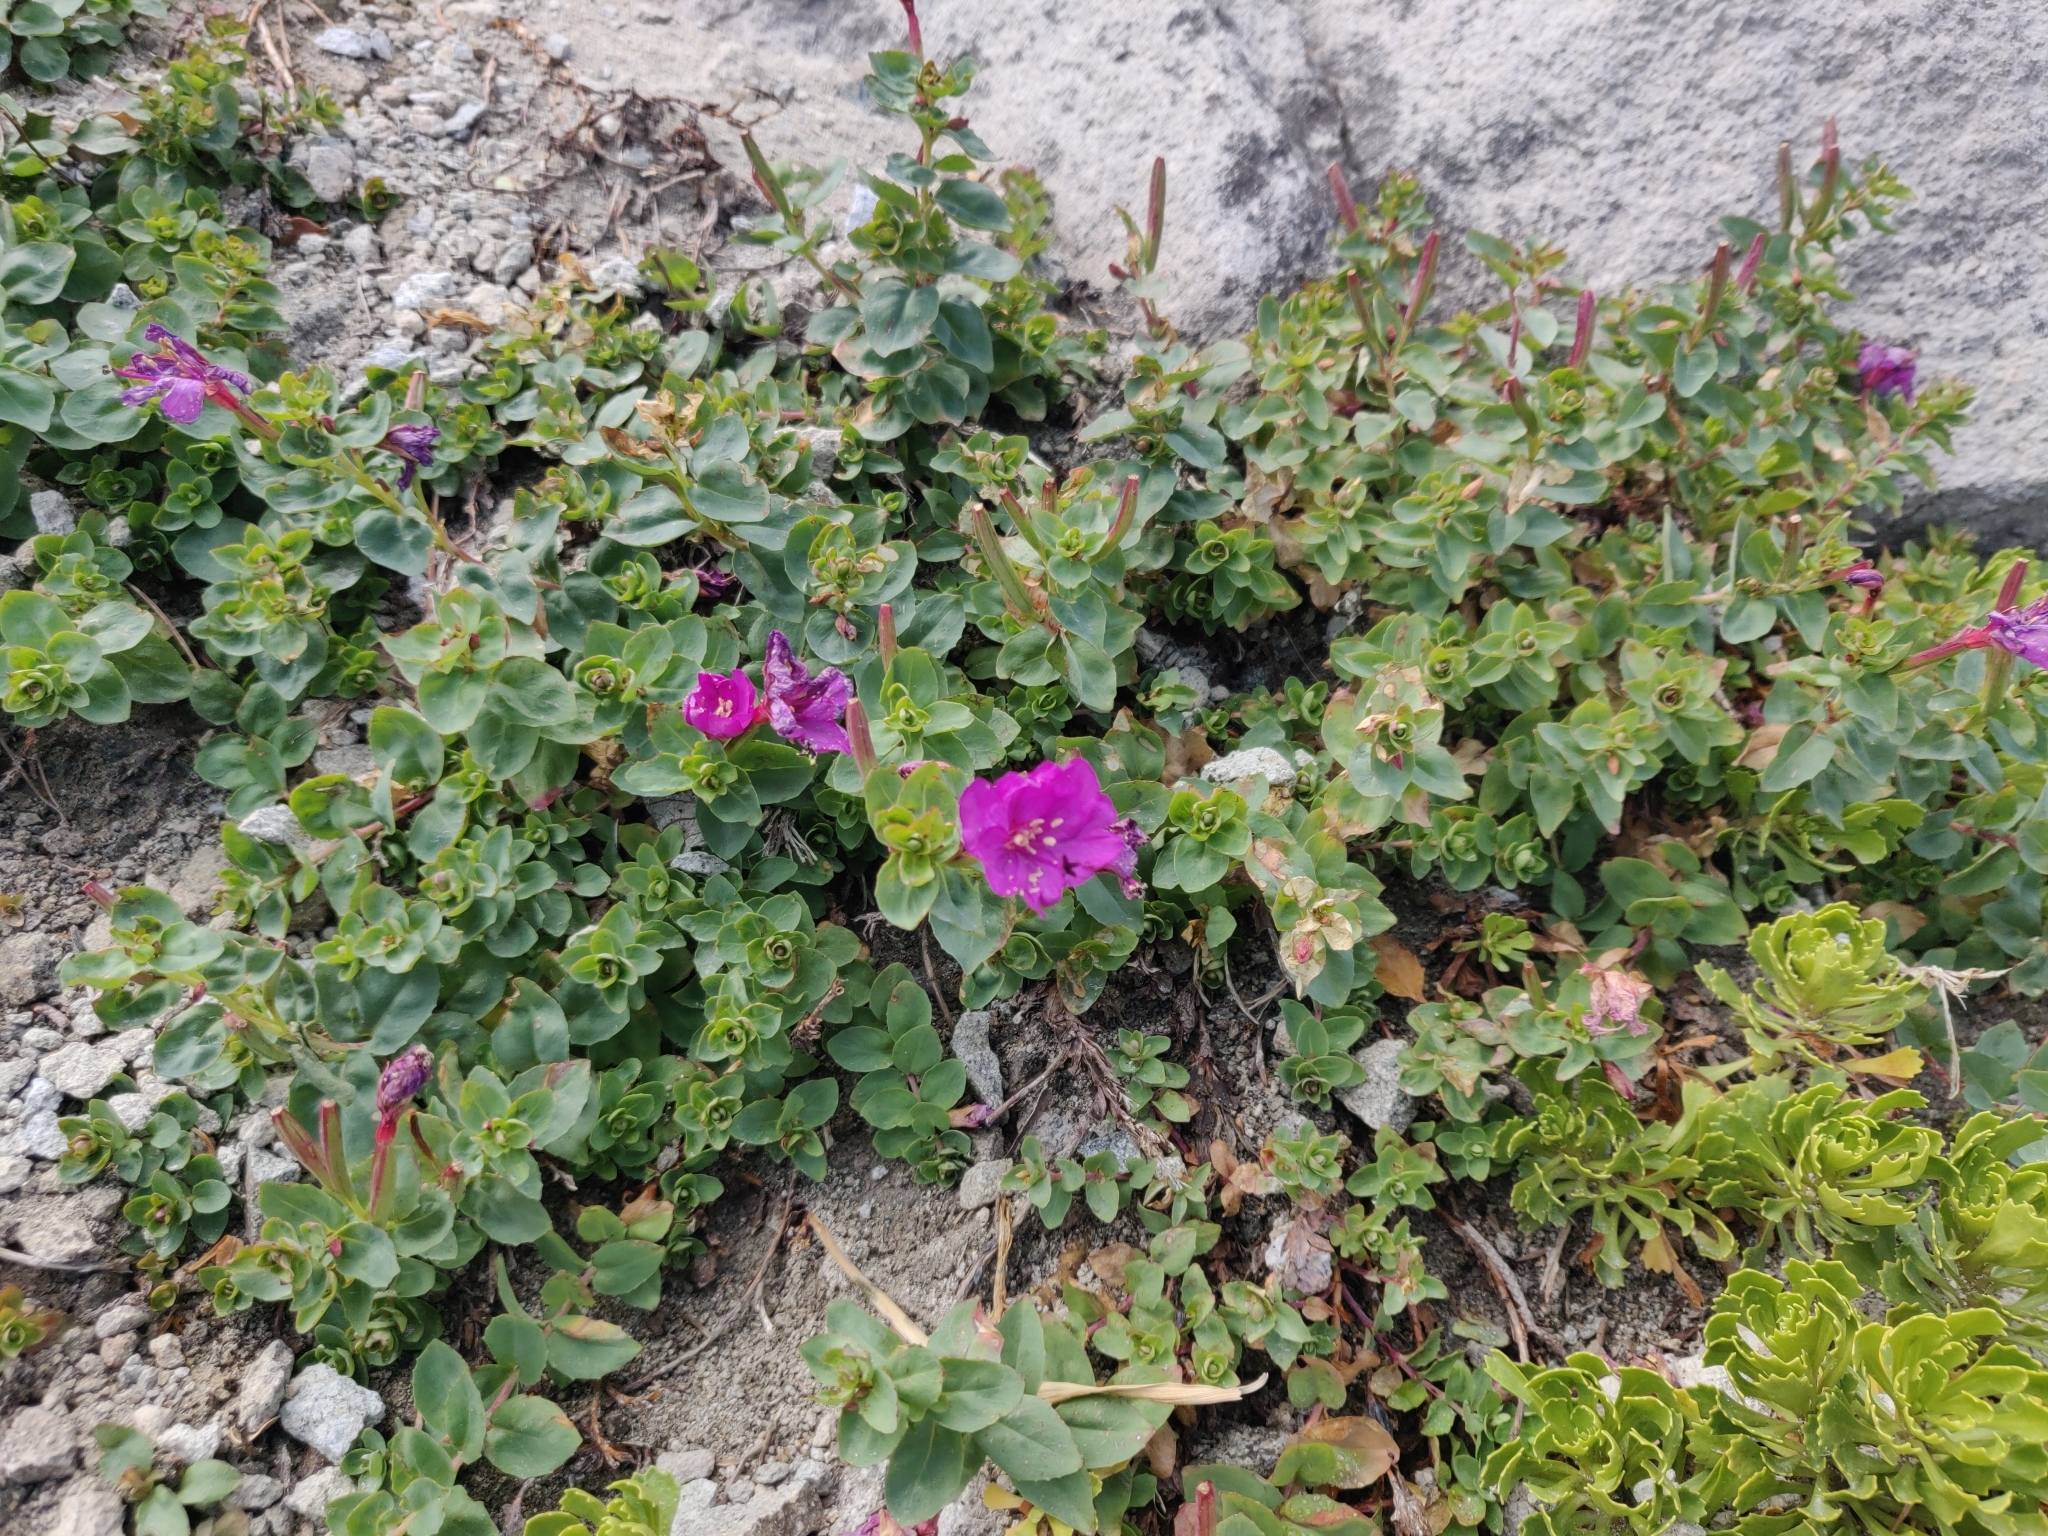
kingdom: Plantae
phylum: Tracheophyta
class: Magnoliopsida
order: Myrtales
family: Onagraceae
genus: Epilobium
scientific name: Epilobium obcordatum
